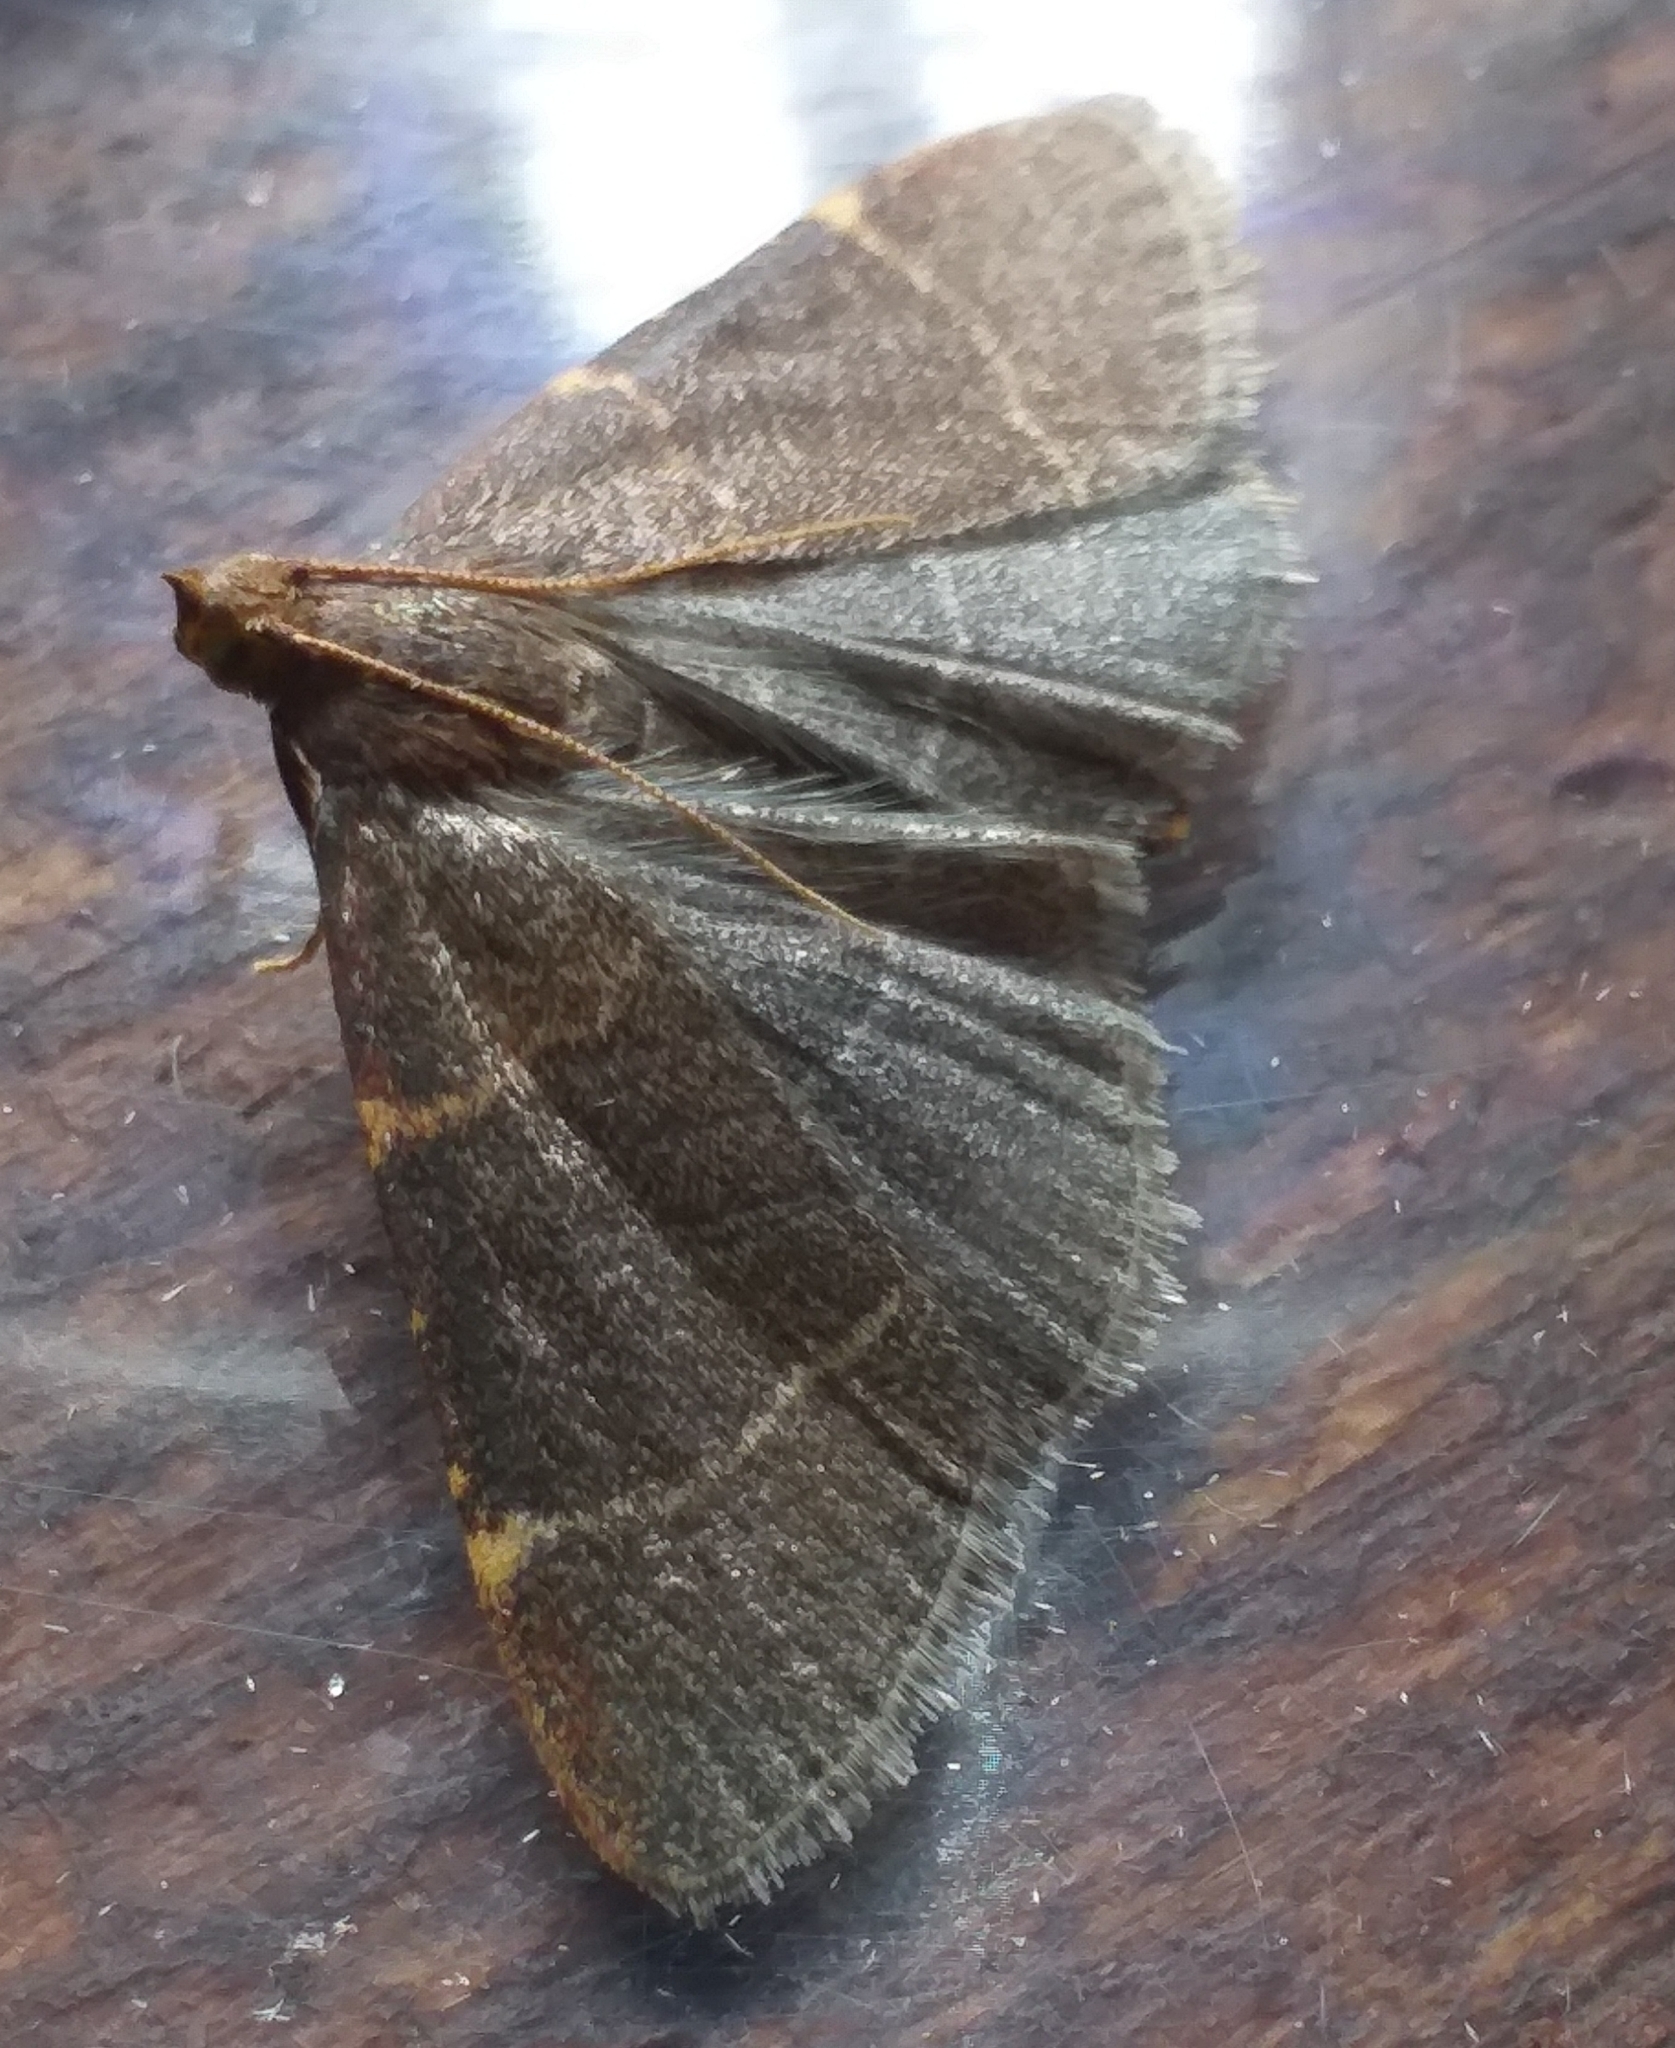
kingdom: Animalia
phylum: Arthropoda
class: Insecta
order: Lepidoptera
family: Pyralidae
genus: Hypsopygia
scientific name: Hypsopygia glaucinalis
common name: Double-striped tabby
